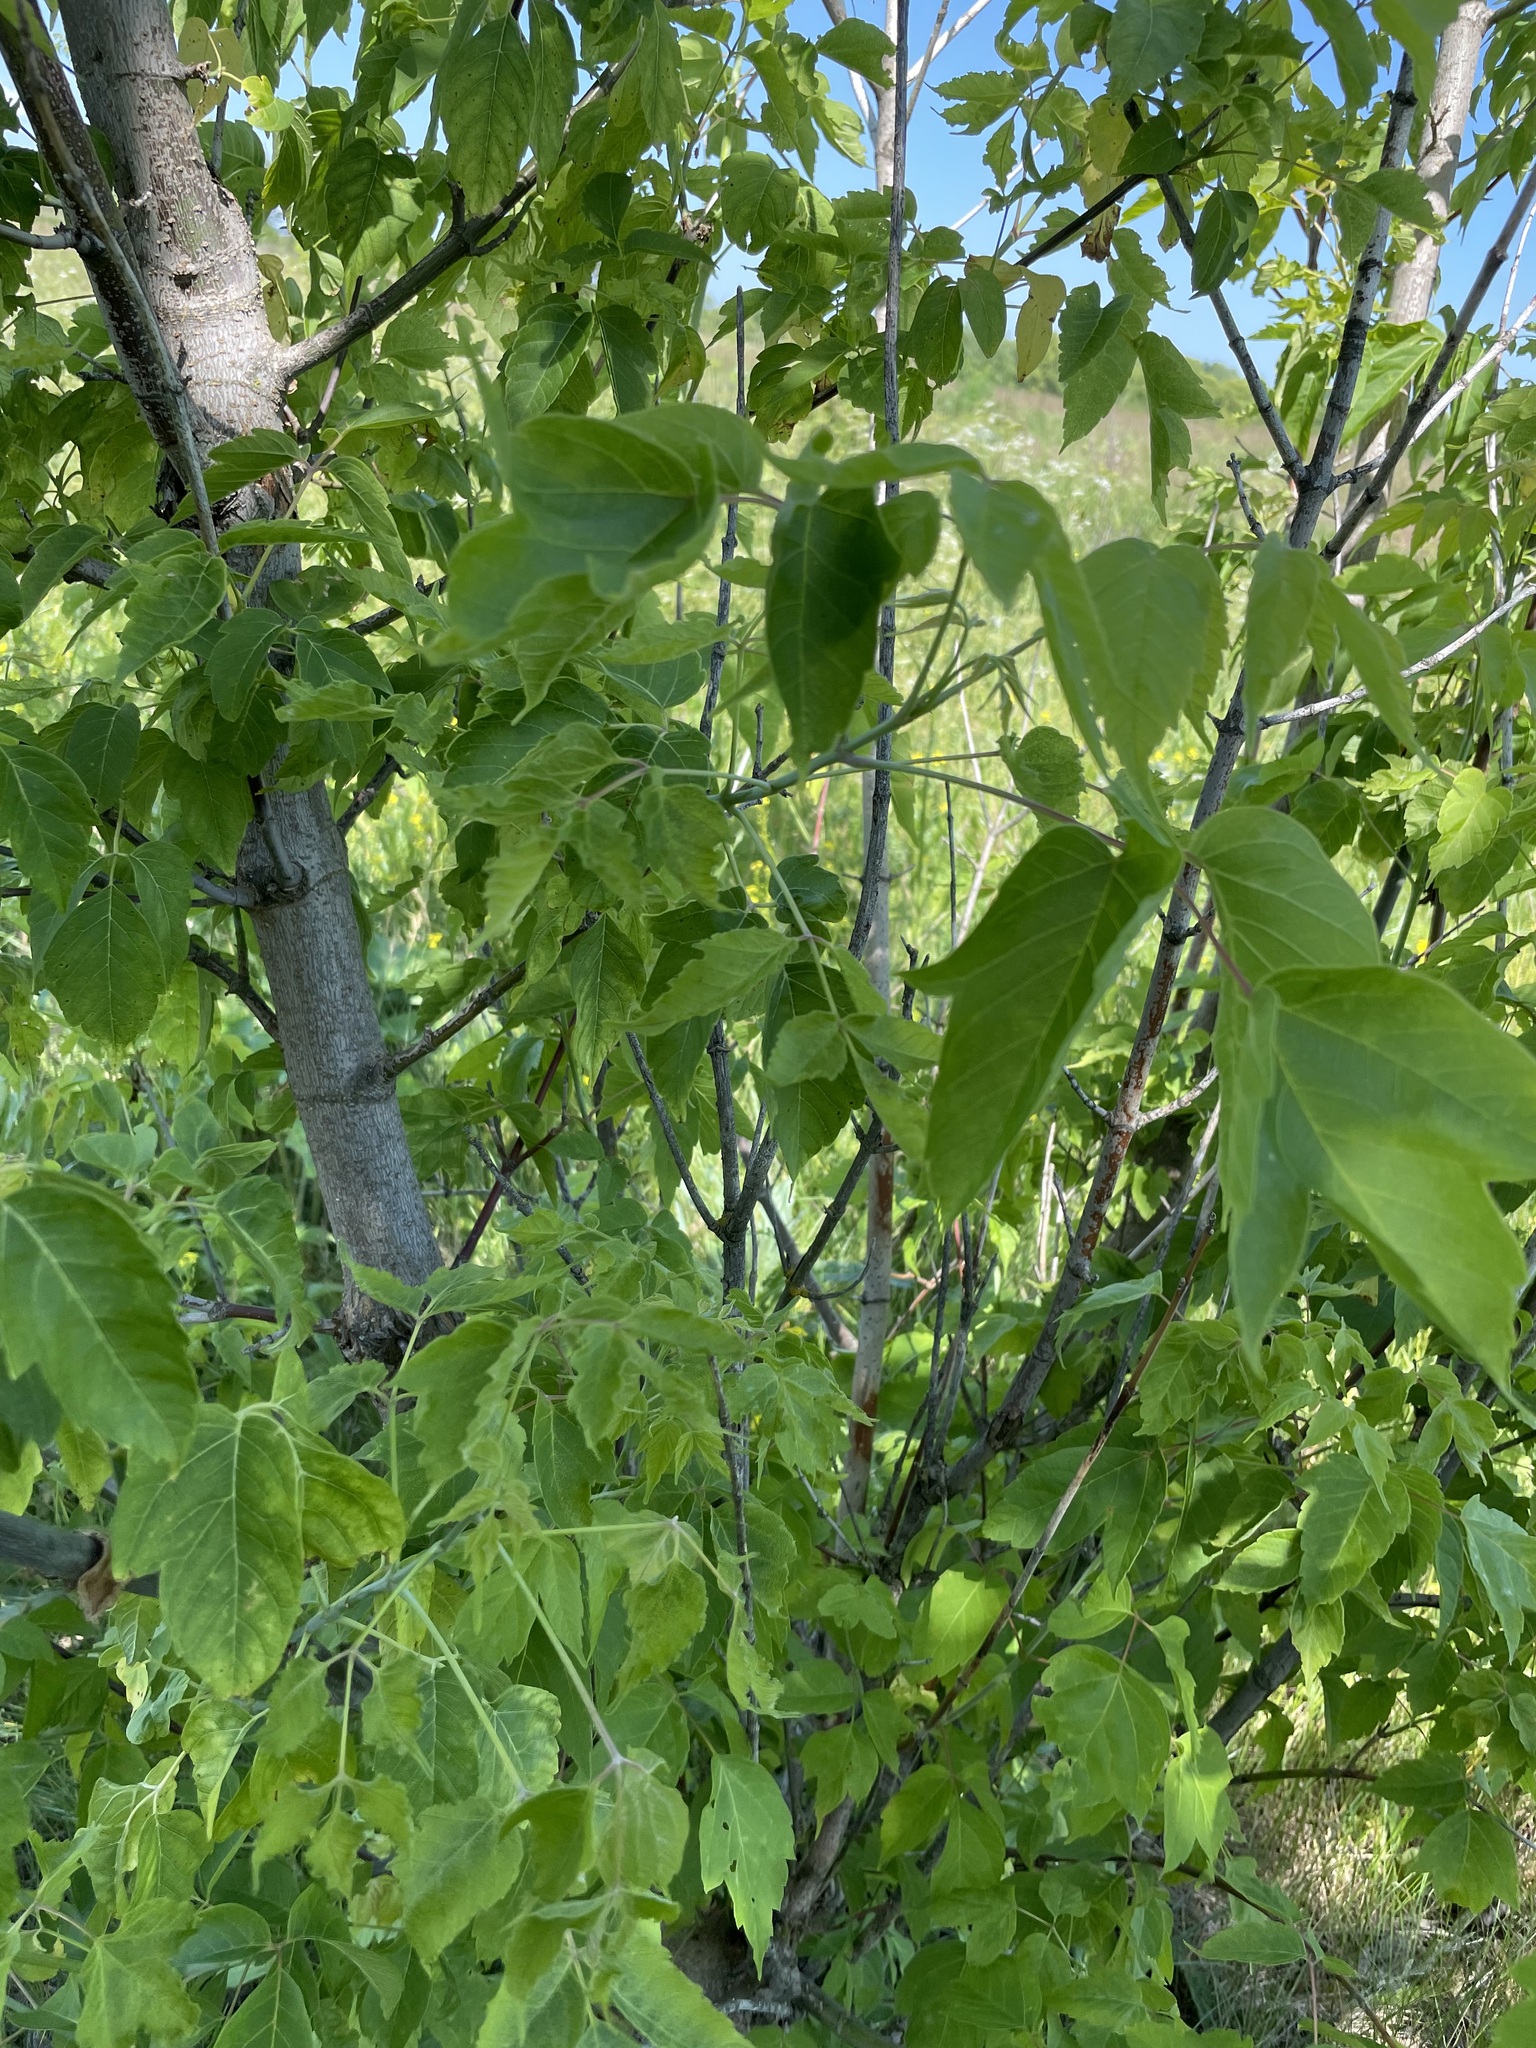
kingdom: Plantae
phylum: Tracheophyta
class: Magnoliopsida
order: Sapindales
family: Sapindaceae
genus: Acer
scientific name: Acer negundo
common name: Ashleaf maple
